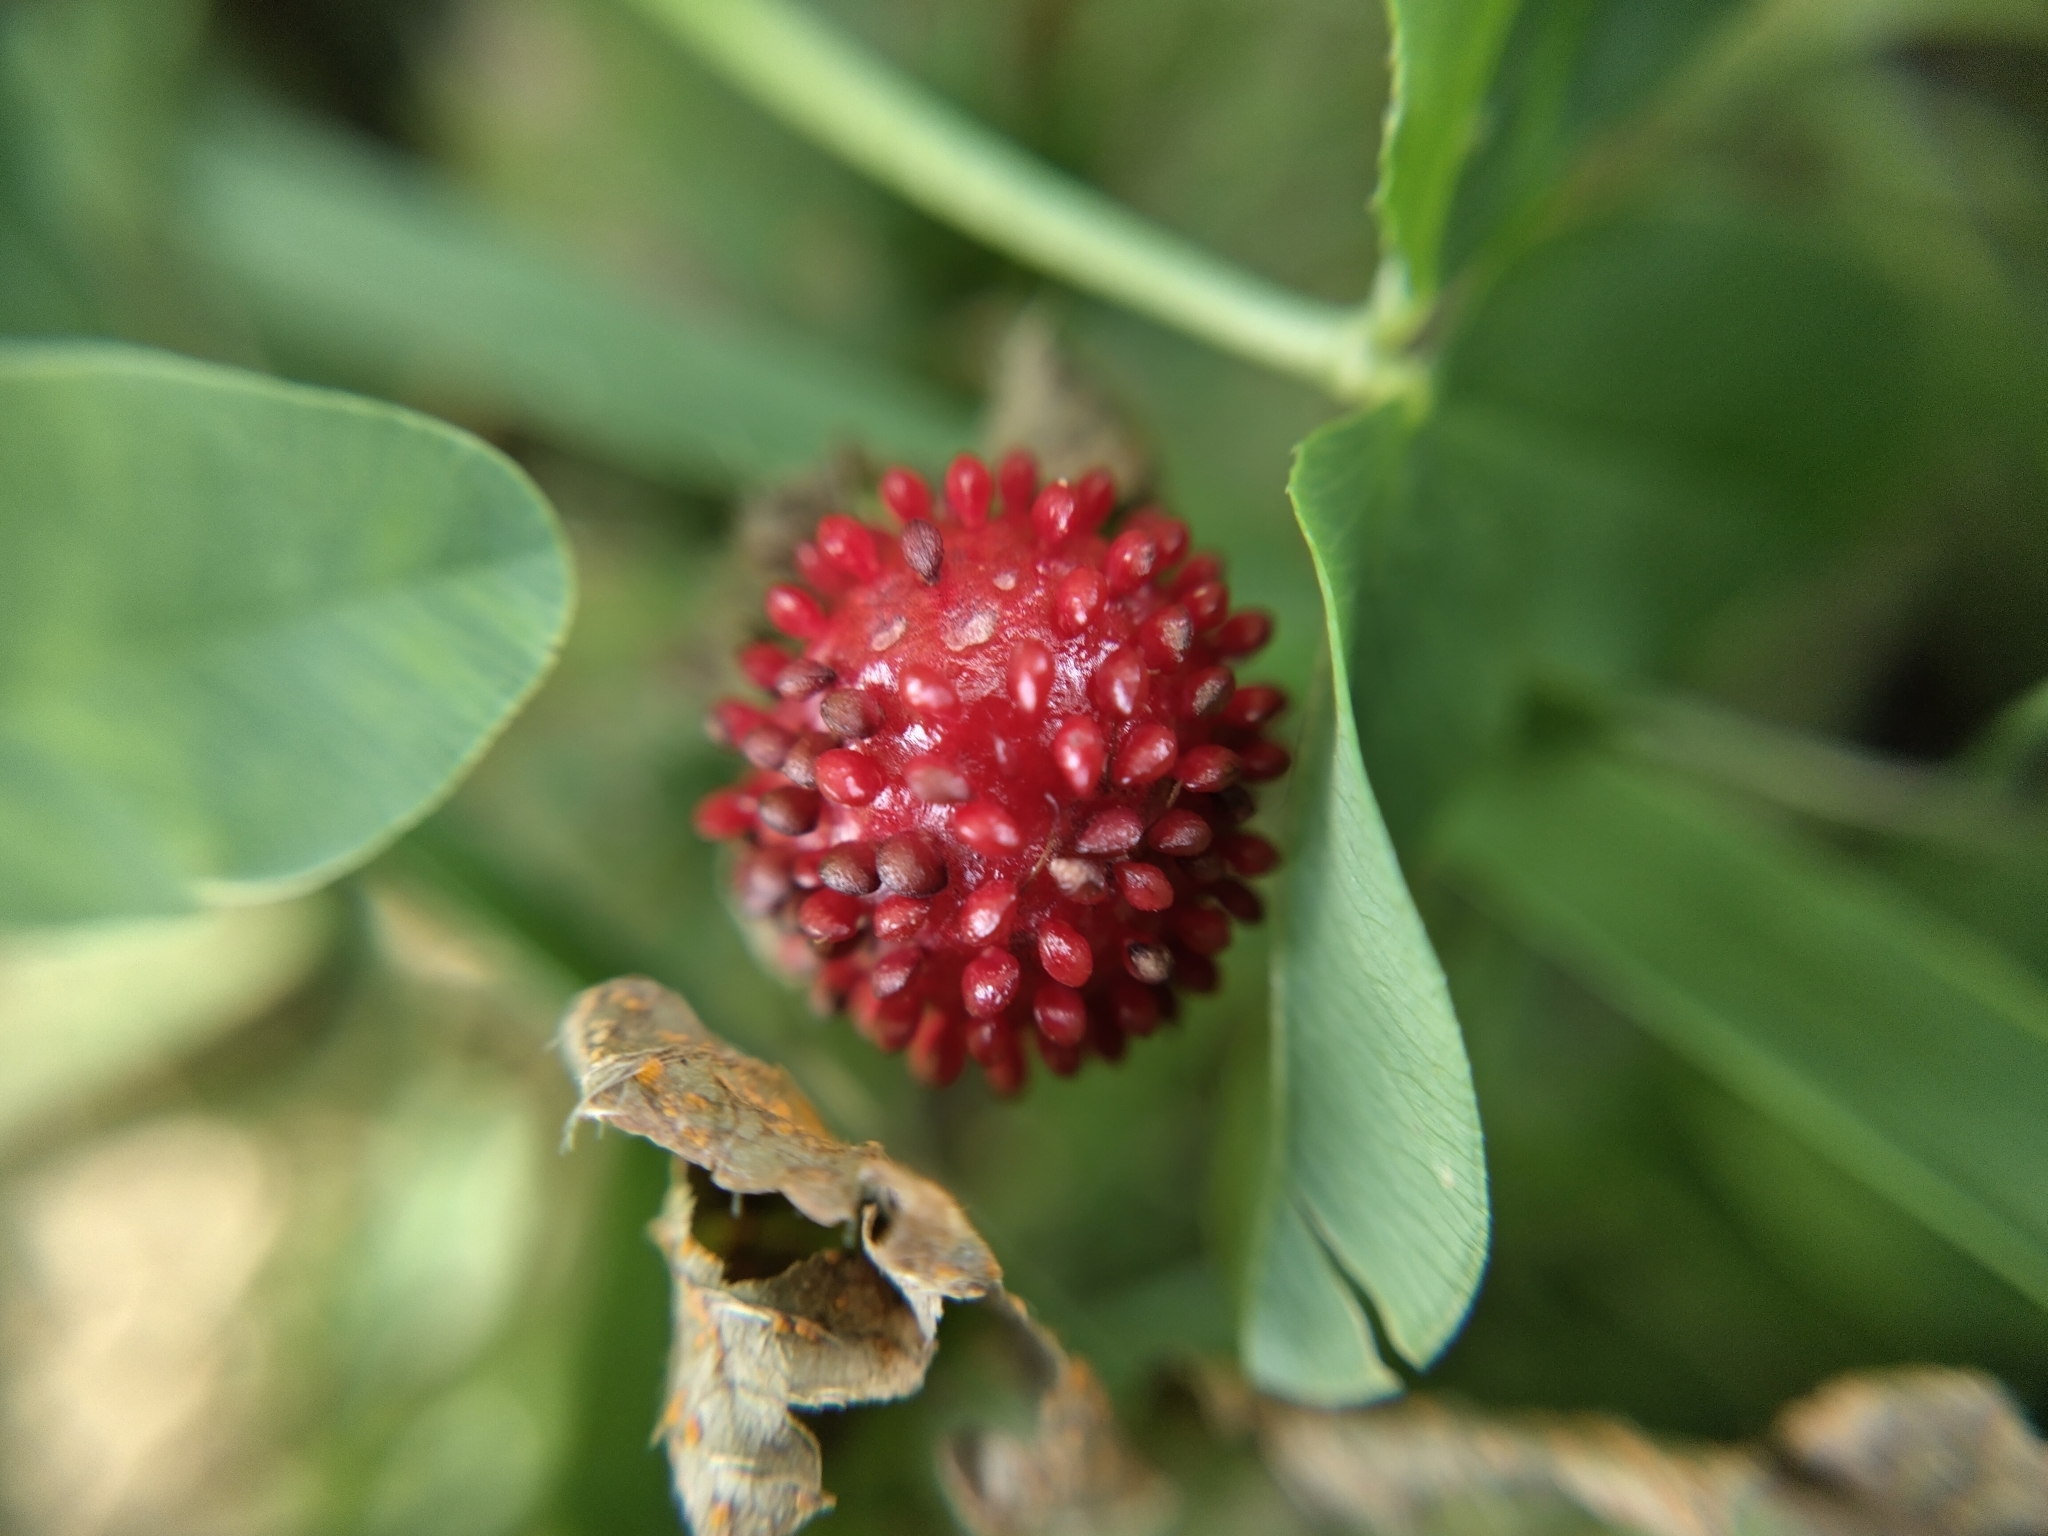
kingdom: Plantae
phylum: Tracheophyta
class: Magnoliopsida
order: Rosales
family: Rosaceae
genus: Potentilla
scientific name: Potentilla indica
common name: Yellow-flowered strawberry
